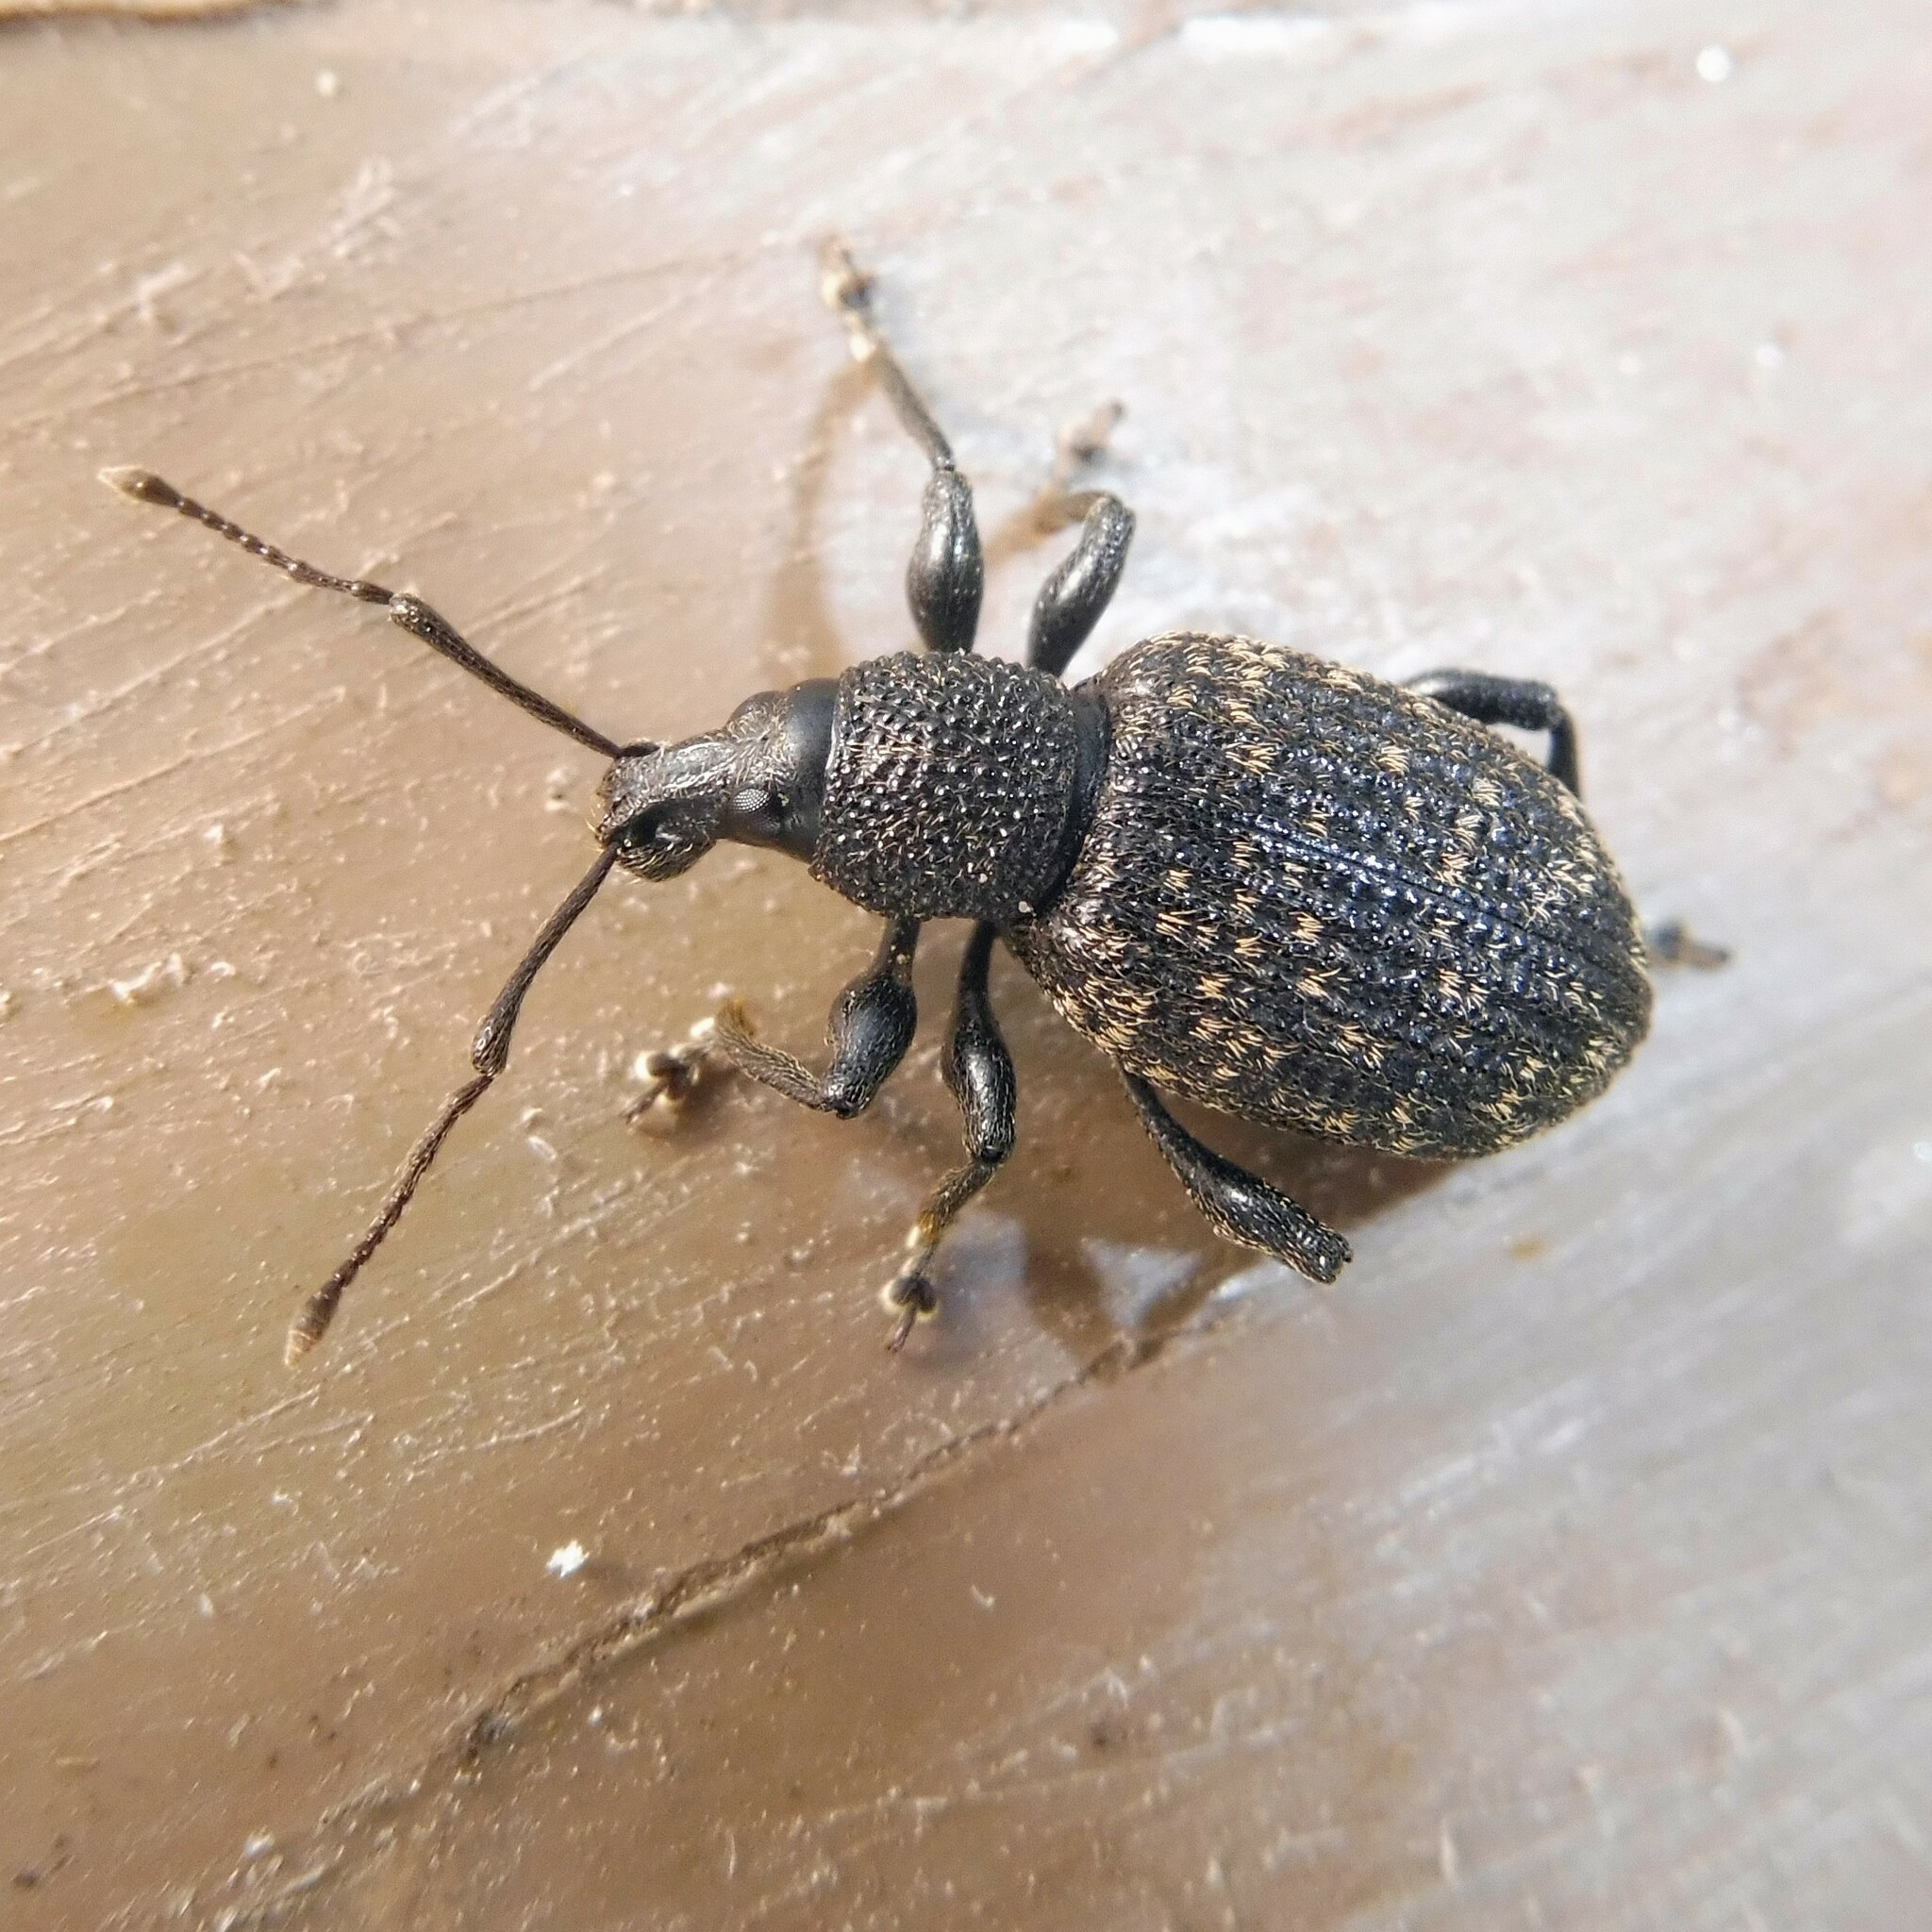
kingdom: Animalia
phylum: Arthropoda
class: Insecta
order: Coleoptera
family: Curculionidae
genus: Otiorhynchus
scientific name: Otiorhynchus sulcatus
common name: Black vine weevil
